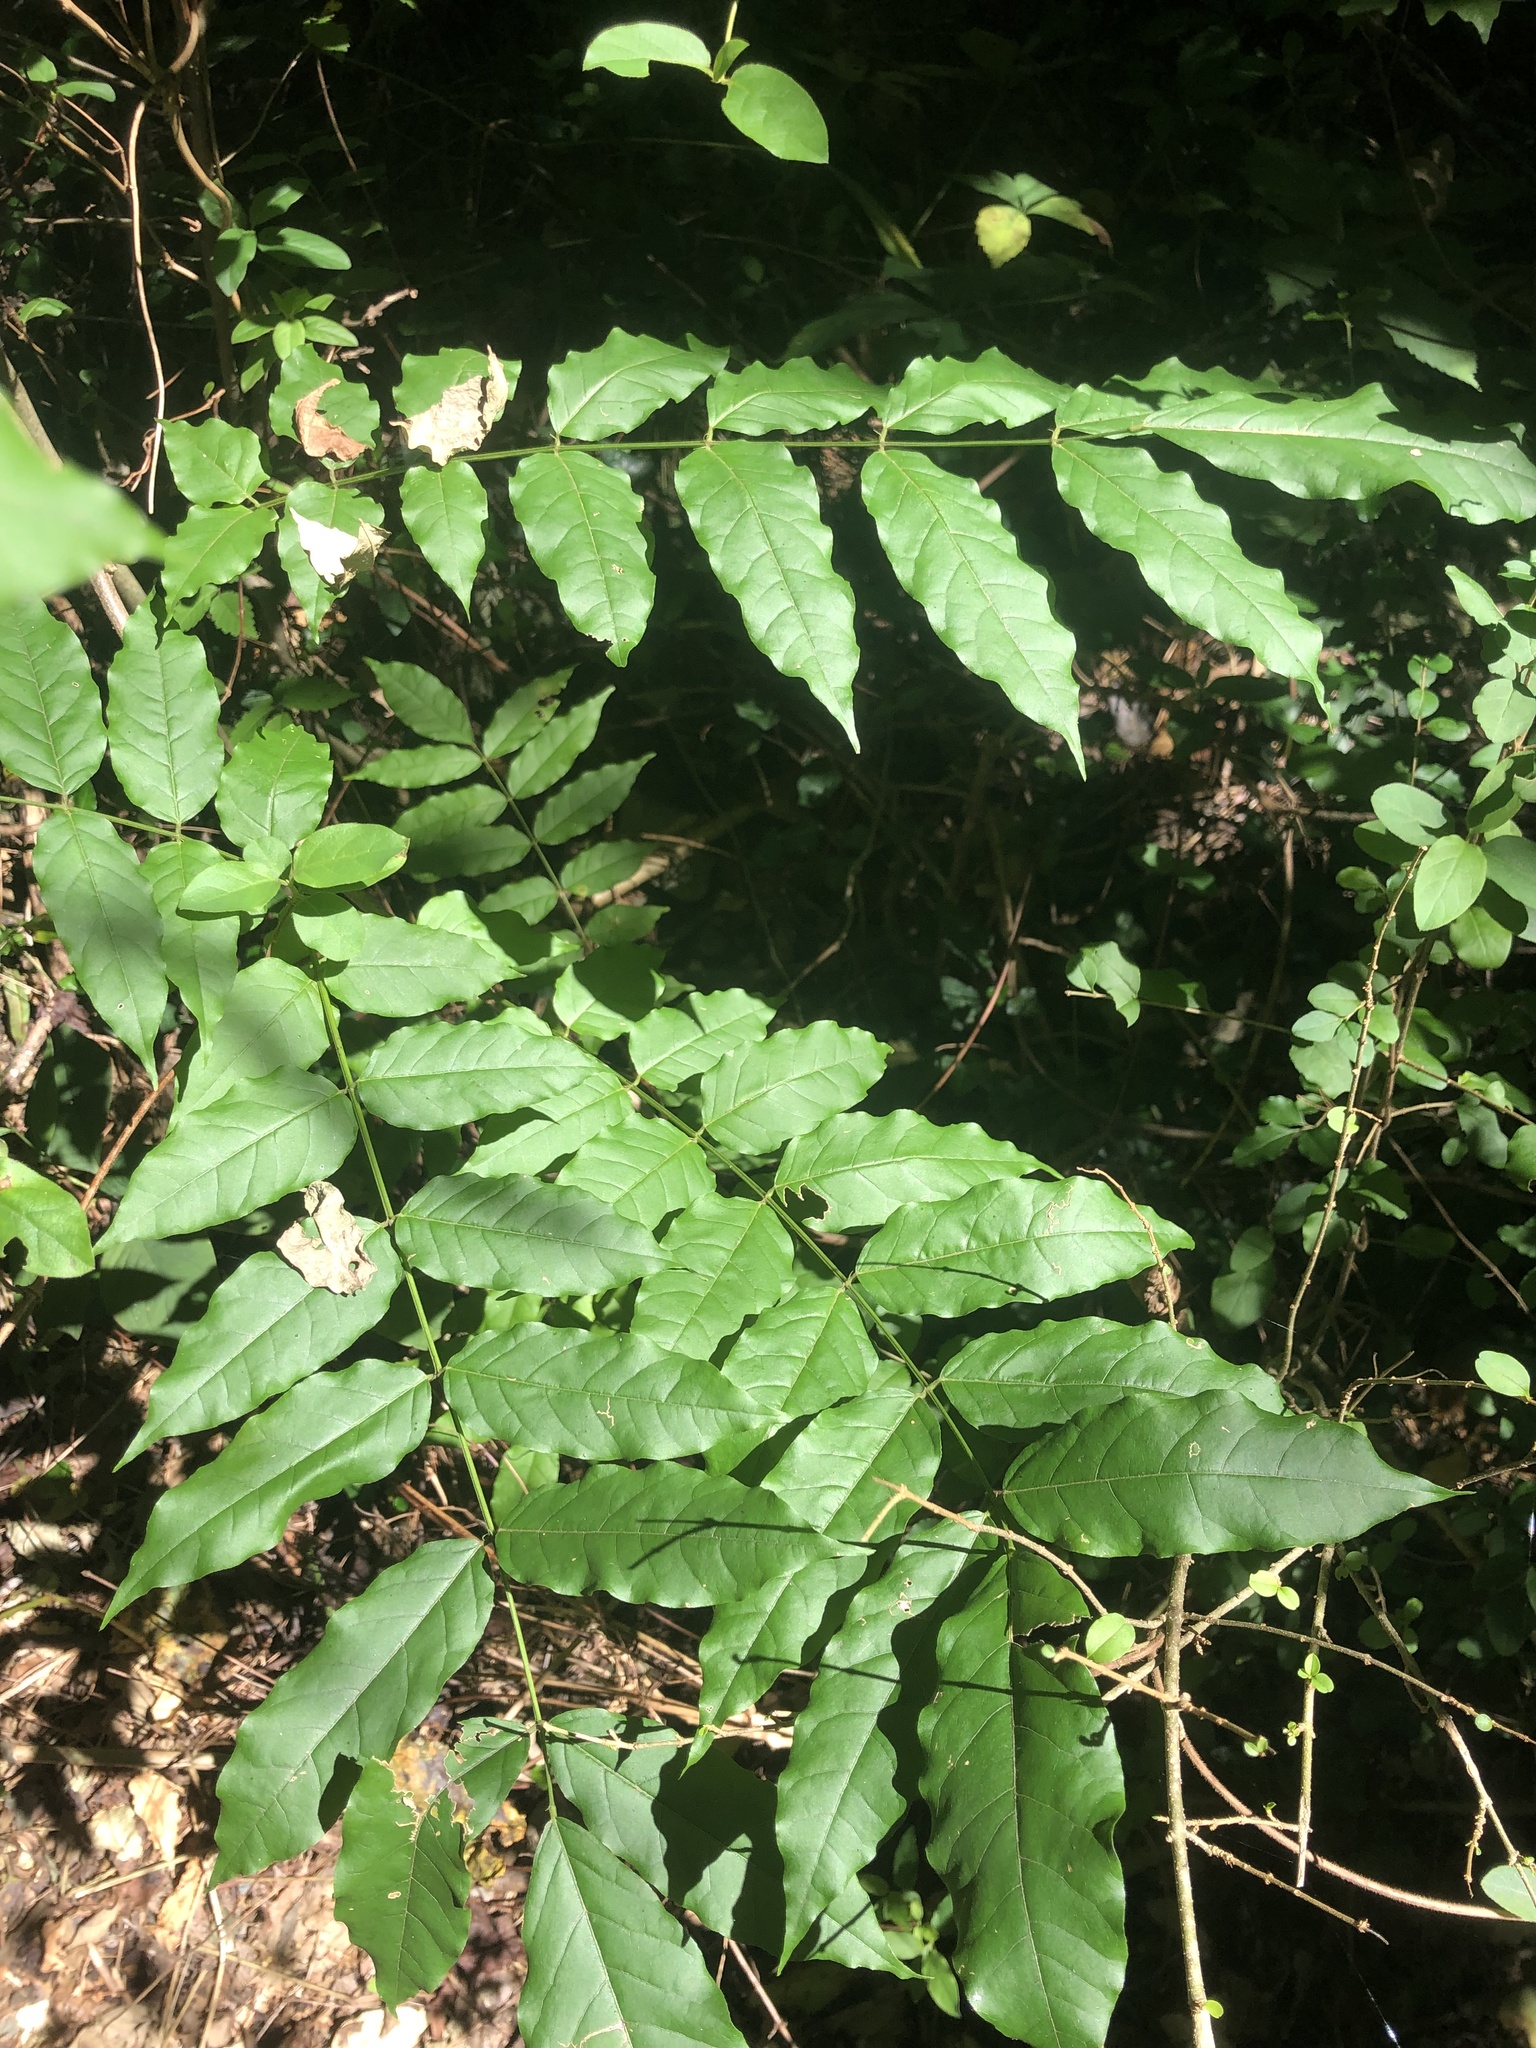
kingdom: Plantae
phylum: Tracheophyta
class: Magnoliopsida
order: Fabales
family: Fabaceae
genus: Wisteria
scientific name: Wisteria floribunda
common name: Japanese wisteria
